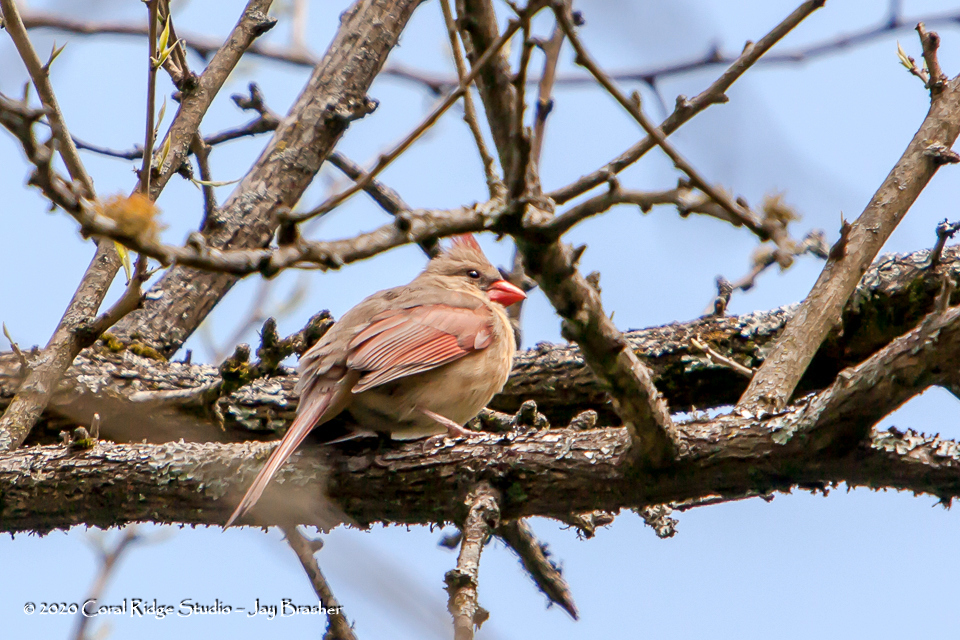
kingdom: Animalia
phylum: Chordata
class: Aves
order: Passeriformes
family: Cardinalidae
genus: Cardinalis
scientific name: Cardinalis cardinalis
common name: Northern cardinal
